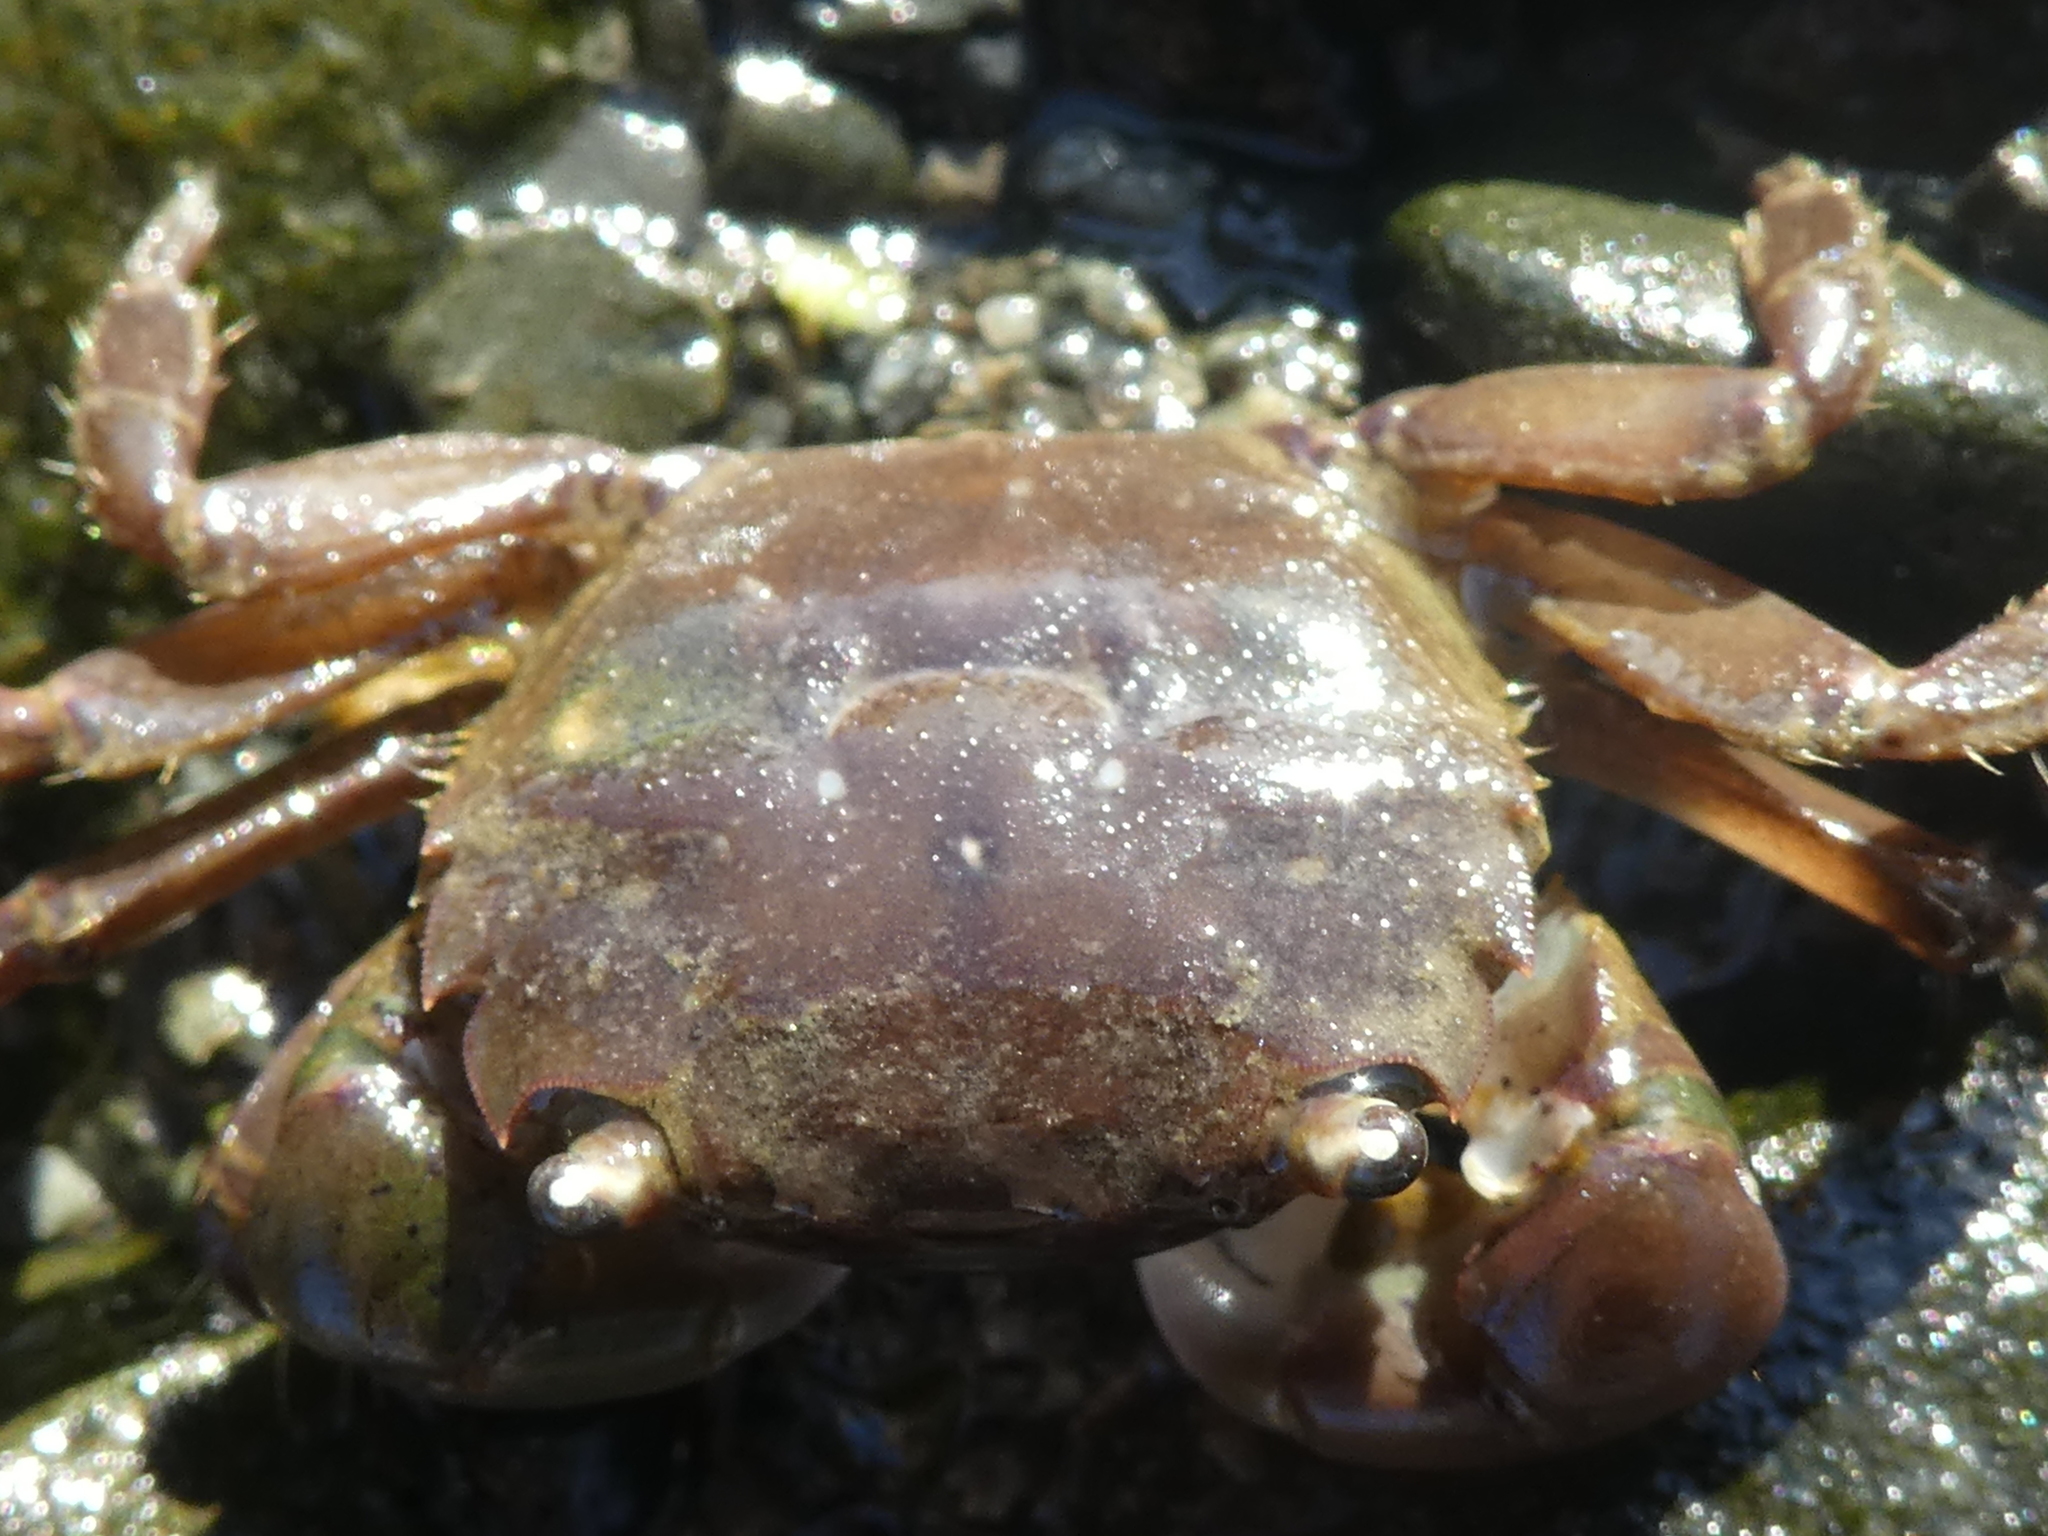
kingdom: Animalia
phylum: Arthropoda
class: Malacostraca
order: Decapoda
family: Varunidae
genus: Hemigrapsus
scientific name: Hemigrapsus oregonensis
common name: Yellow shore crab
